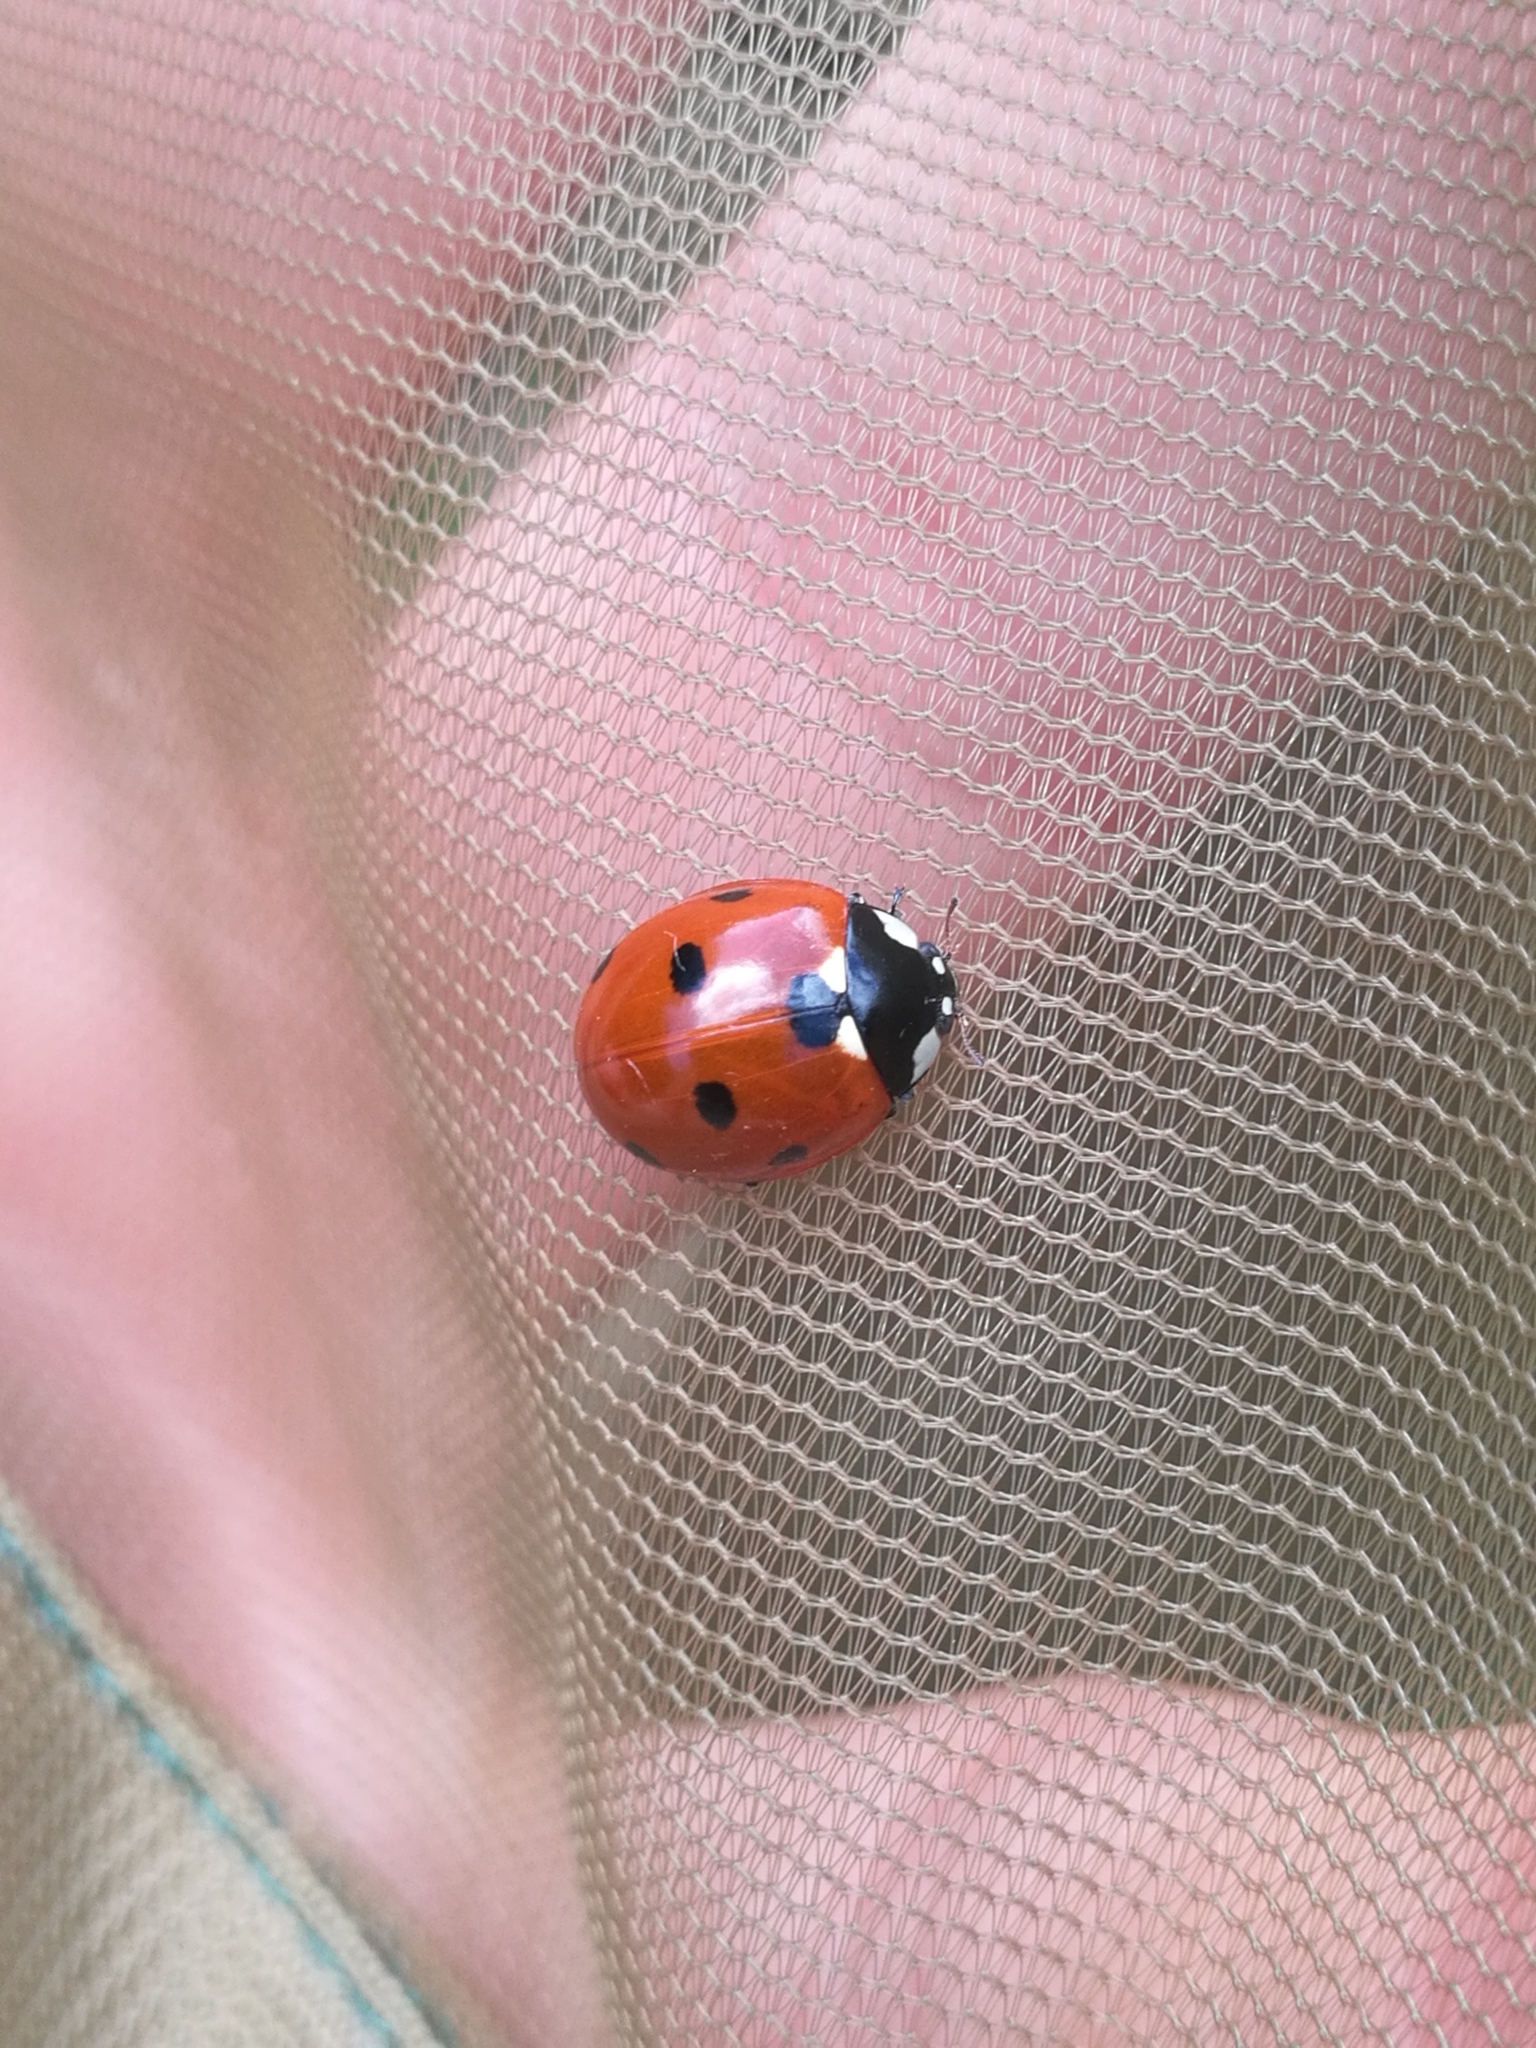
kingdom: Animalia
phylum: Arthropoda
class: Insecta
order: Coleoptera
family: Coccinellidae
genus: Coccinella
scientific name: Coccinella septempunctata
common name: Sevenspotted lady beetle
